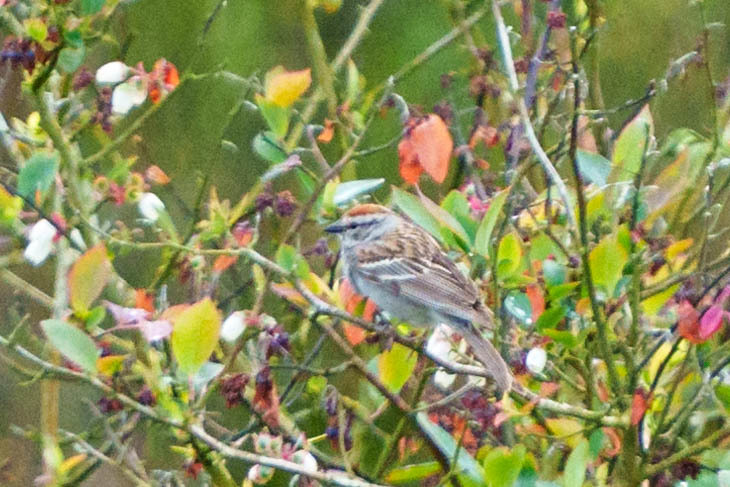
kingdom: Animalia
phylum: Chordata
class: Aves
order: Passeriformes
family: Passerellidae
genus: Spizella
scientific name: Spizella passerina
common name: Chipping sparrow
